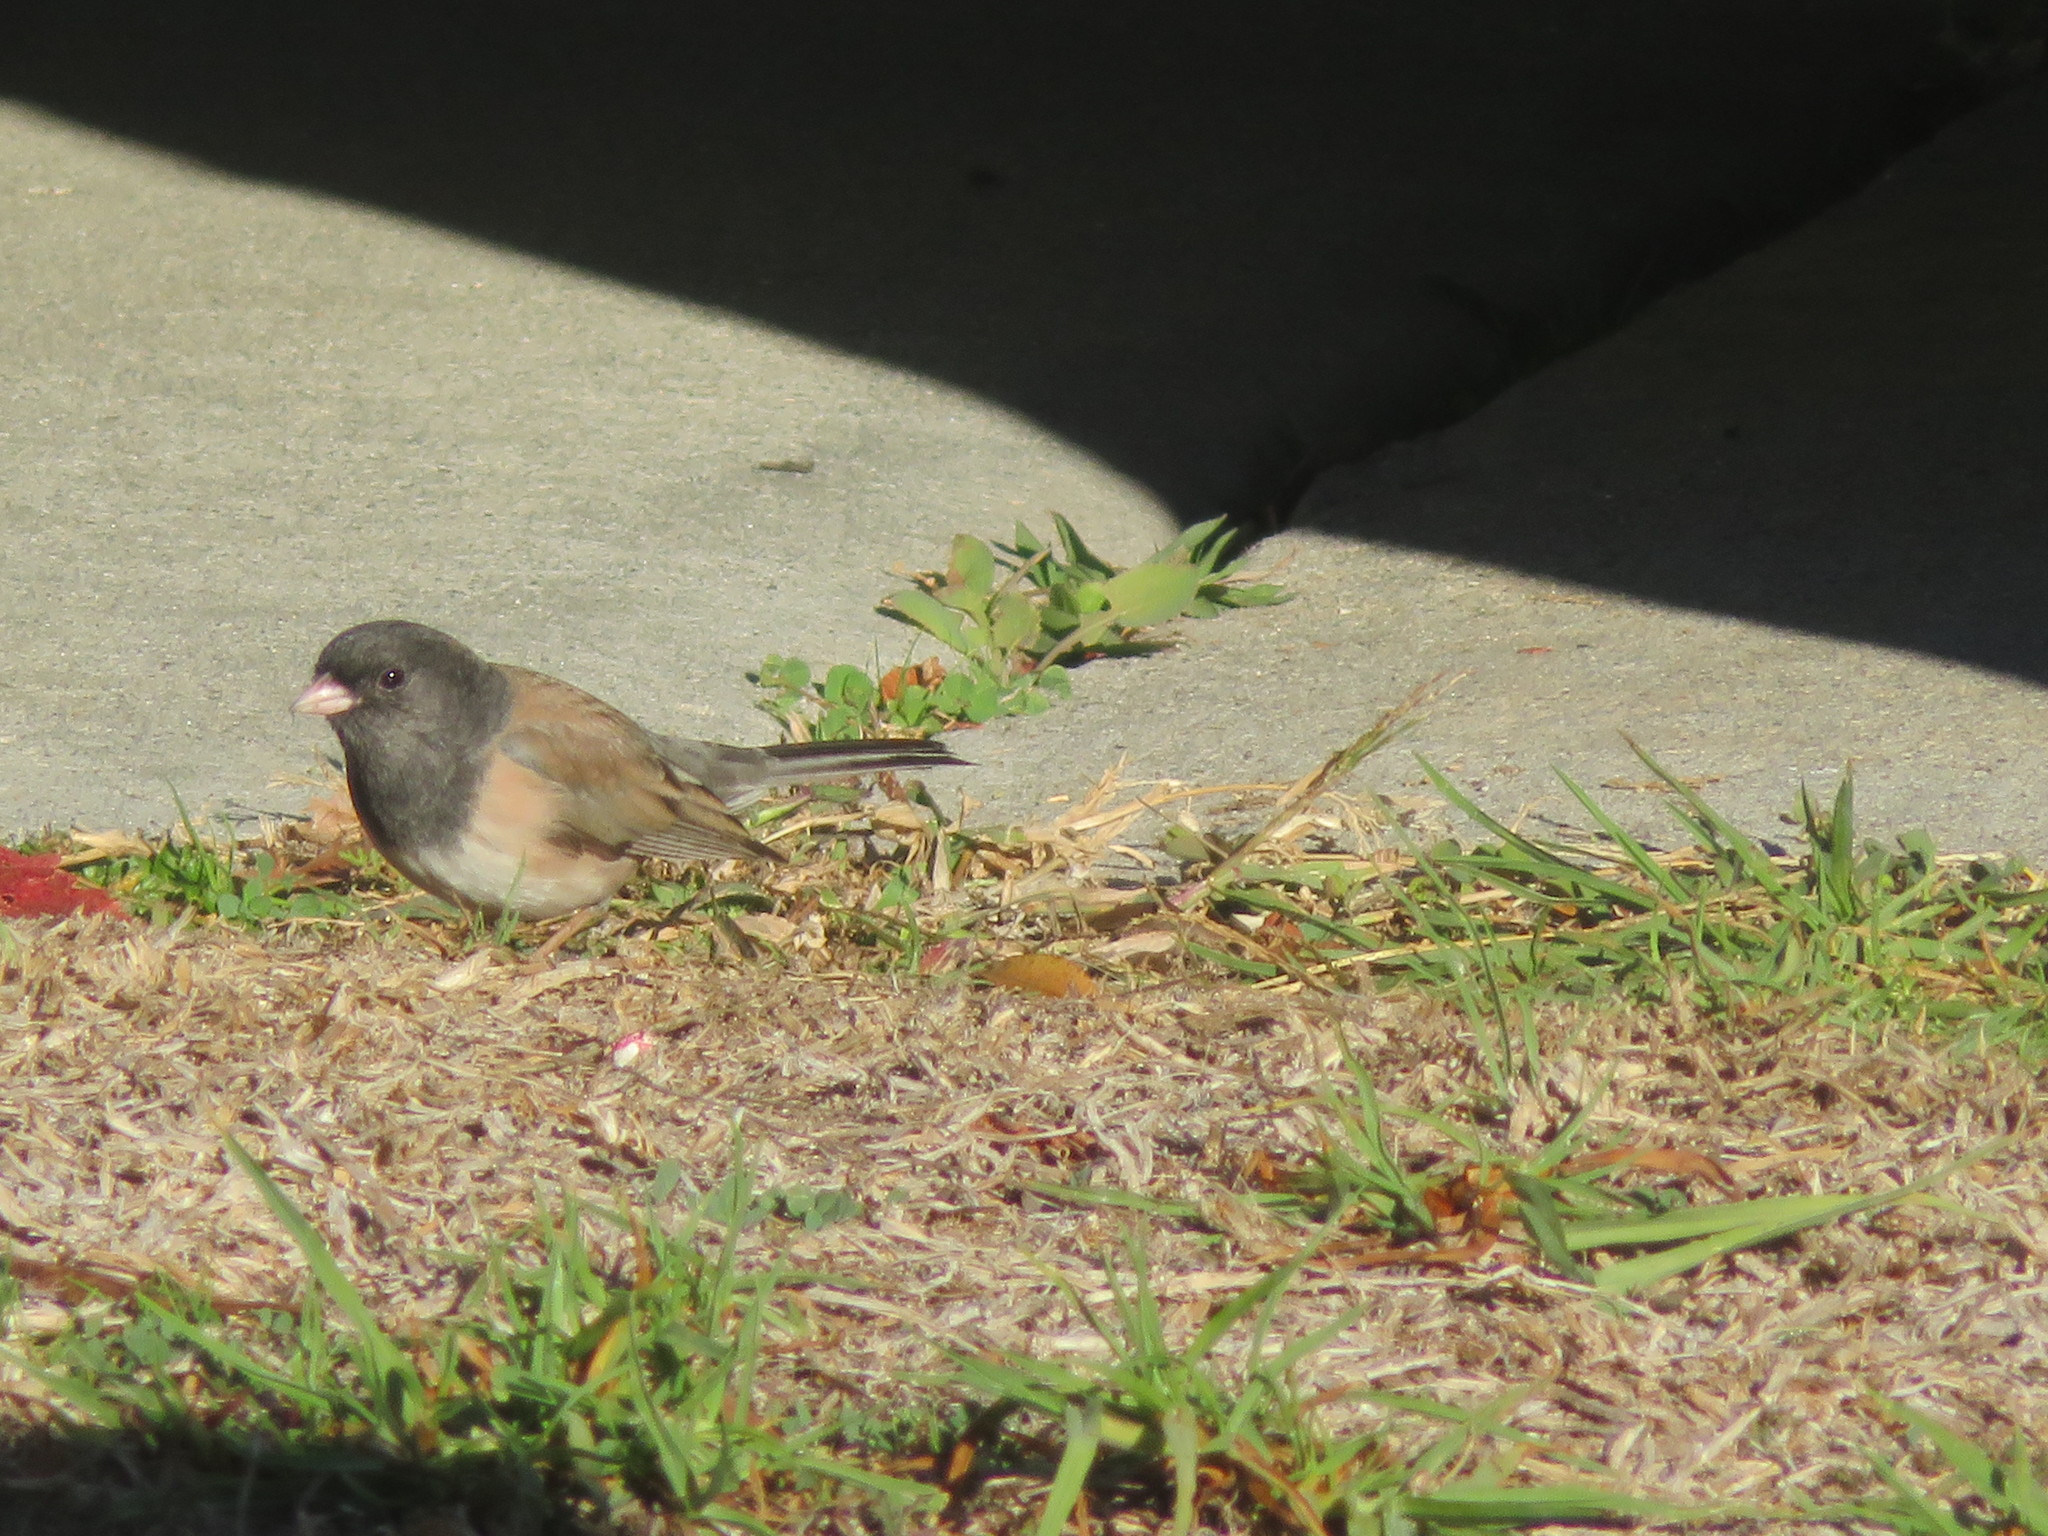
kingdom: Animalia
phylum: Chordata
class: Aves
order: Passeriformes
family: Passerellidae
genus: Junco
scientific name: Junco hyemalis
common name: Dark-eyed junco
